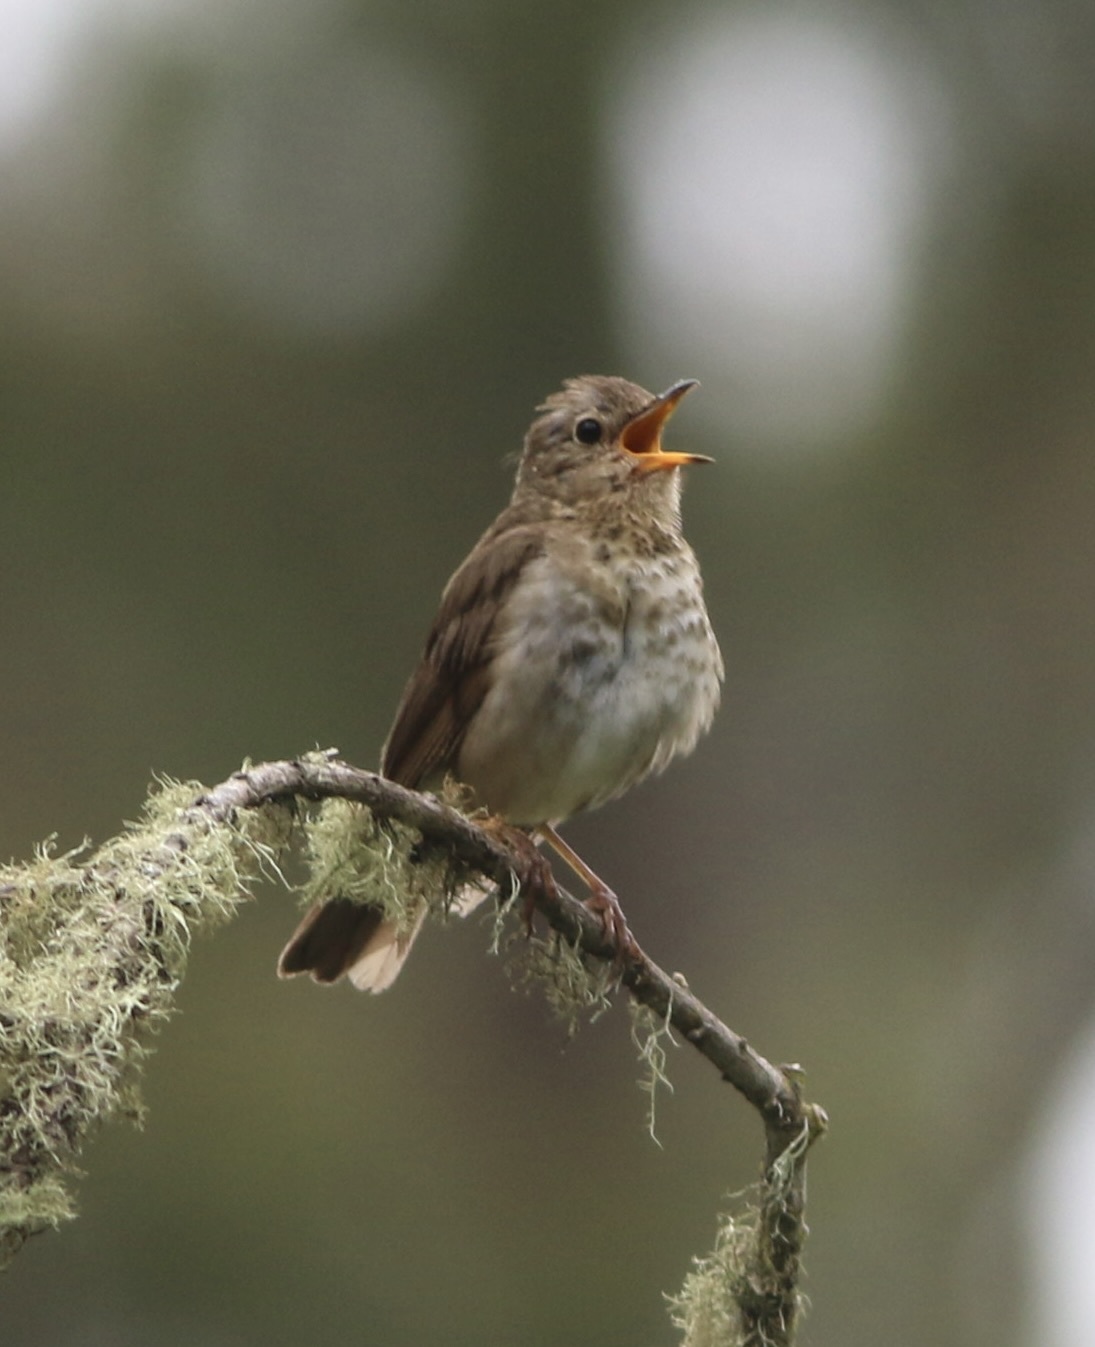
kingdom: Animalia
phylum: Chordata
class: Aves
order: Passeriformes
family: Turdidae
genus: Catharus
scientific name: Catharus ustulatus
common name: Swainson's thrush
